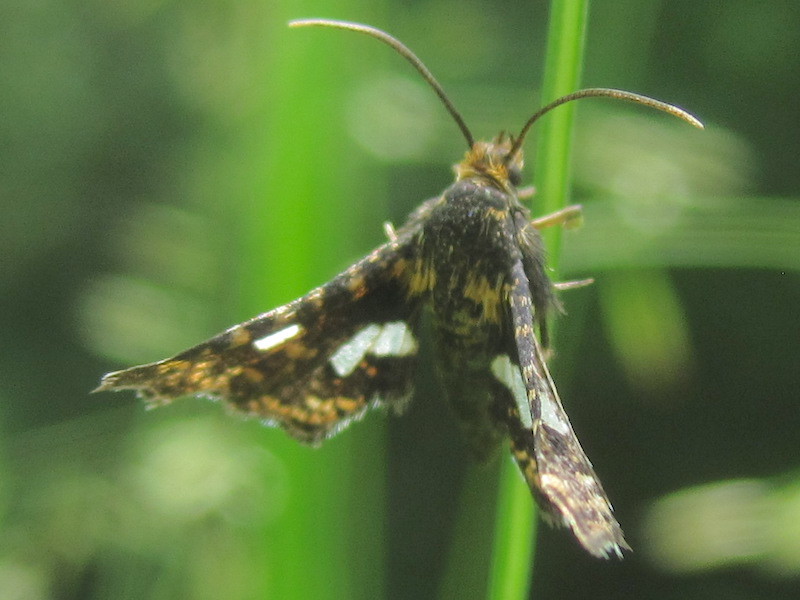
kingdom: Animalia
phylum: Arthropoda
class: Insecta
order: Lepidoptera
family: Thyrididae
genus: Thyris
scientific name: Thyris maculata
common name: Spotted thyris moth
